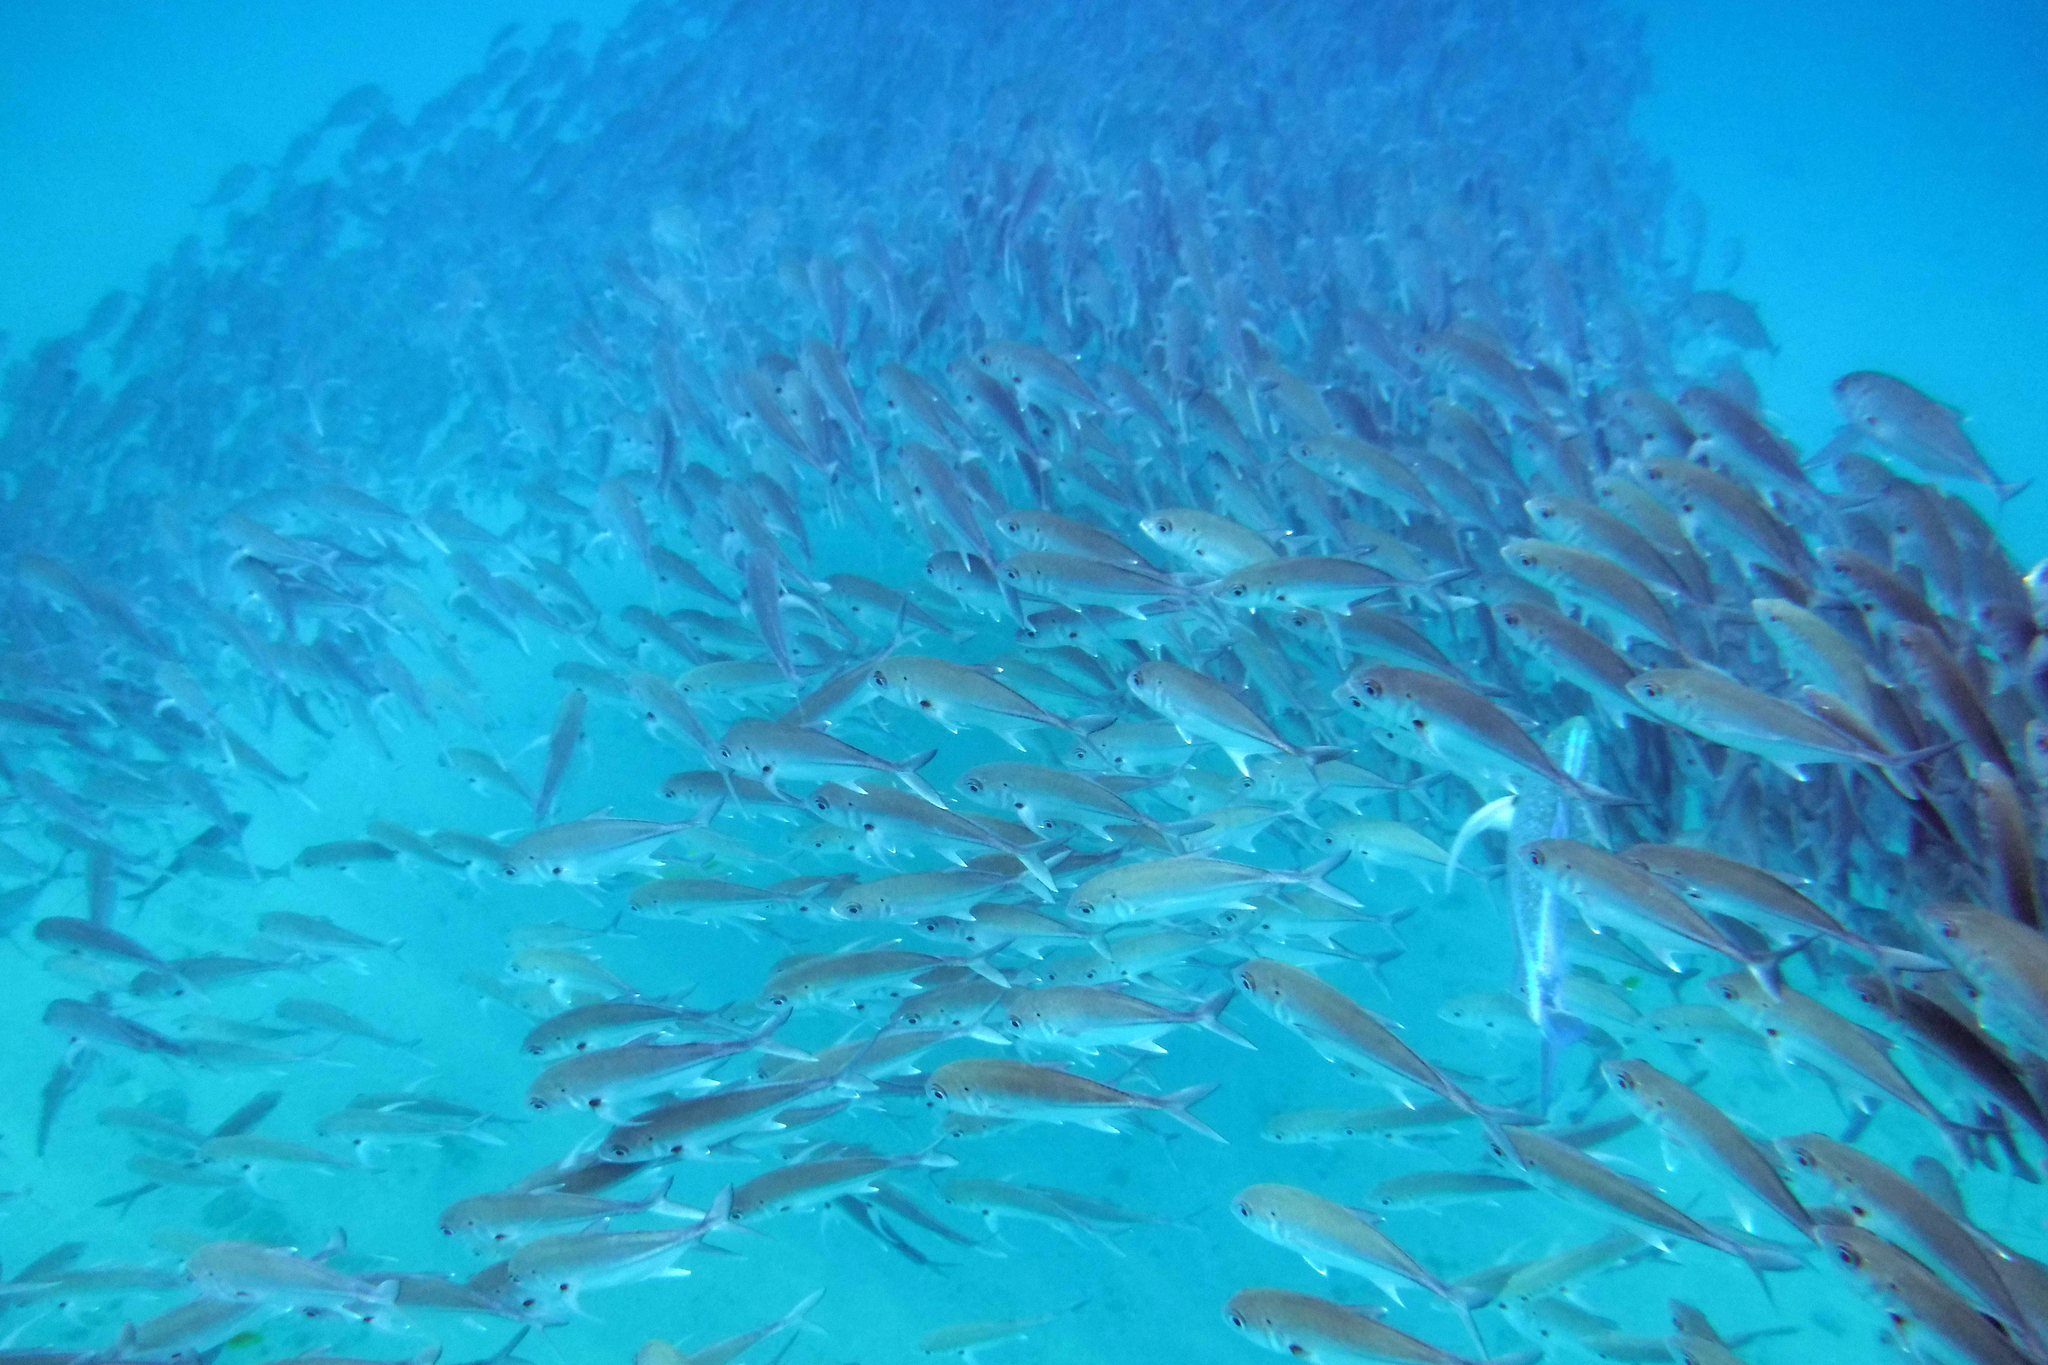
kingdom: Animalia
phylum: Chordata
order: Perciformes
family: Carangidae
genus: Caranx
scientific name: Caranx sexfasciatus
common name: Bigeye trevally
